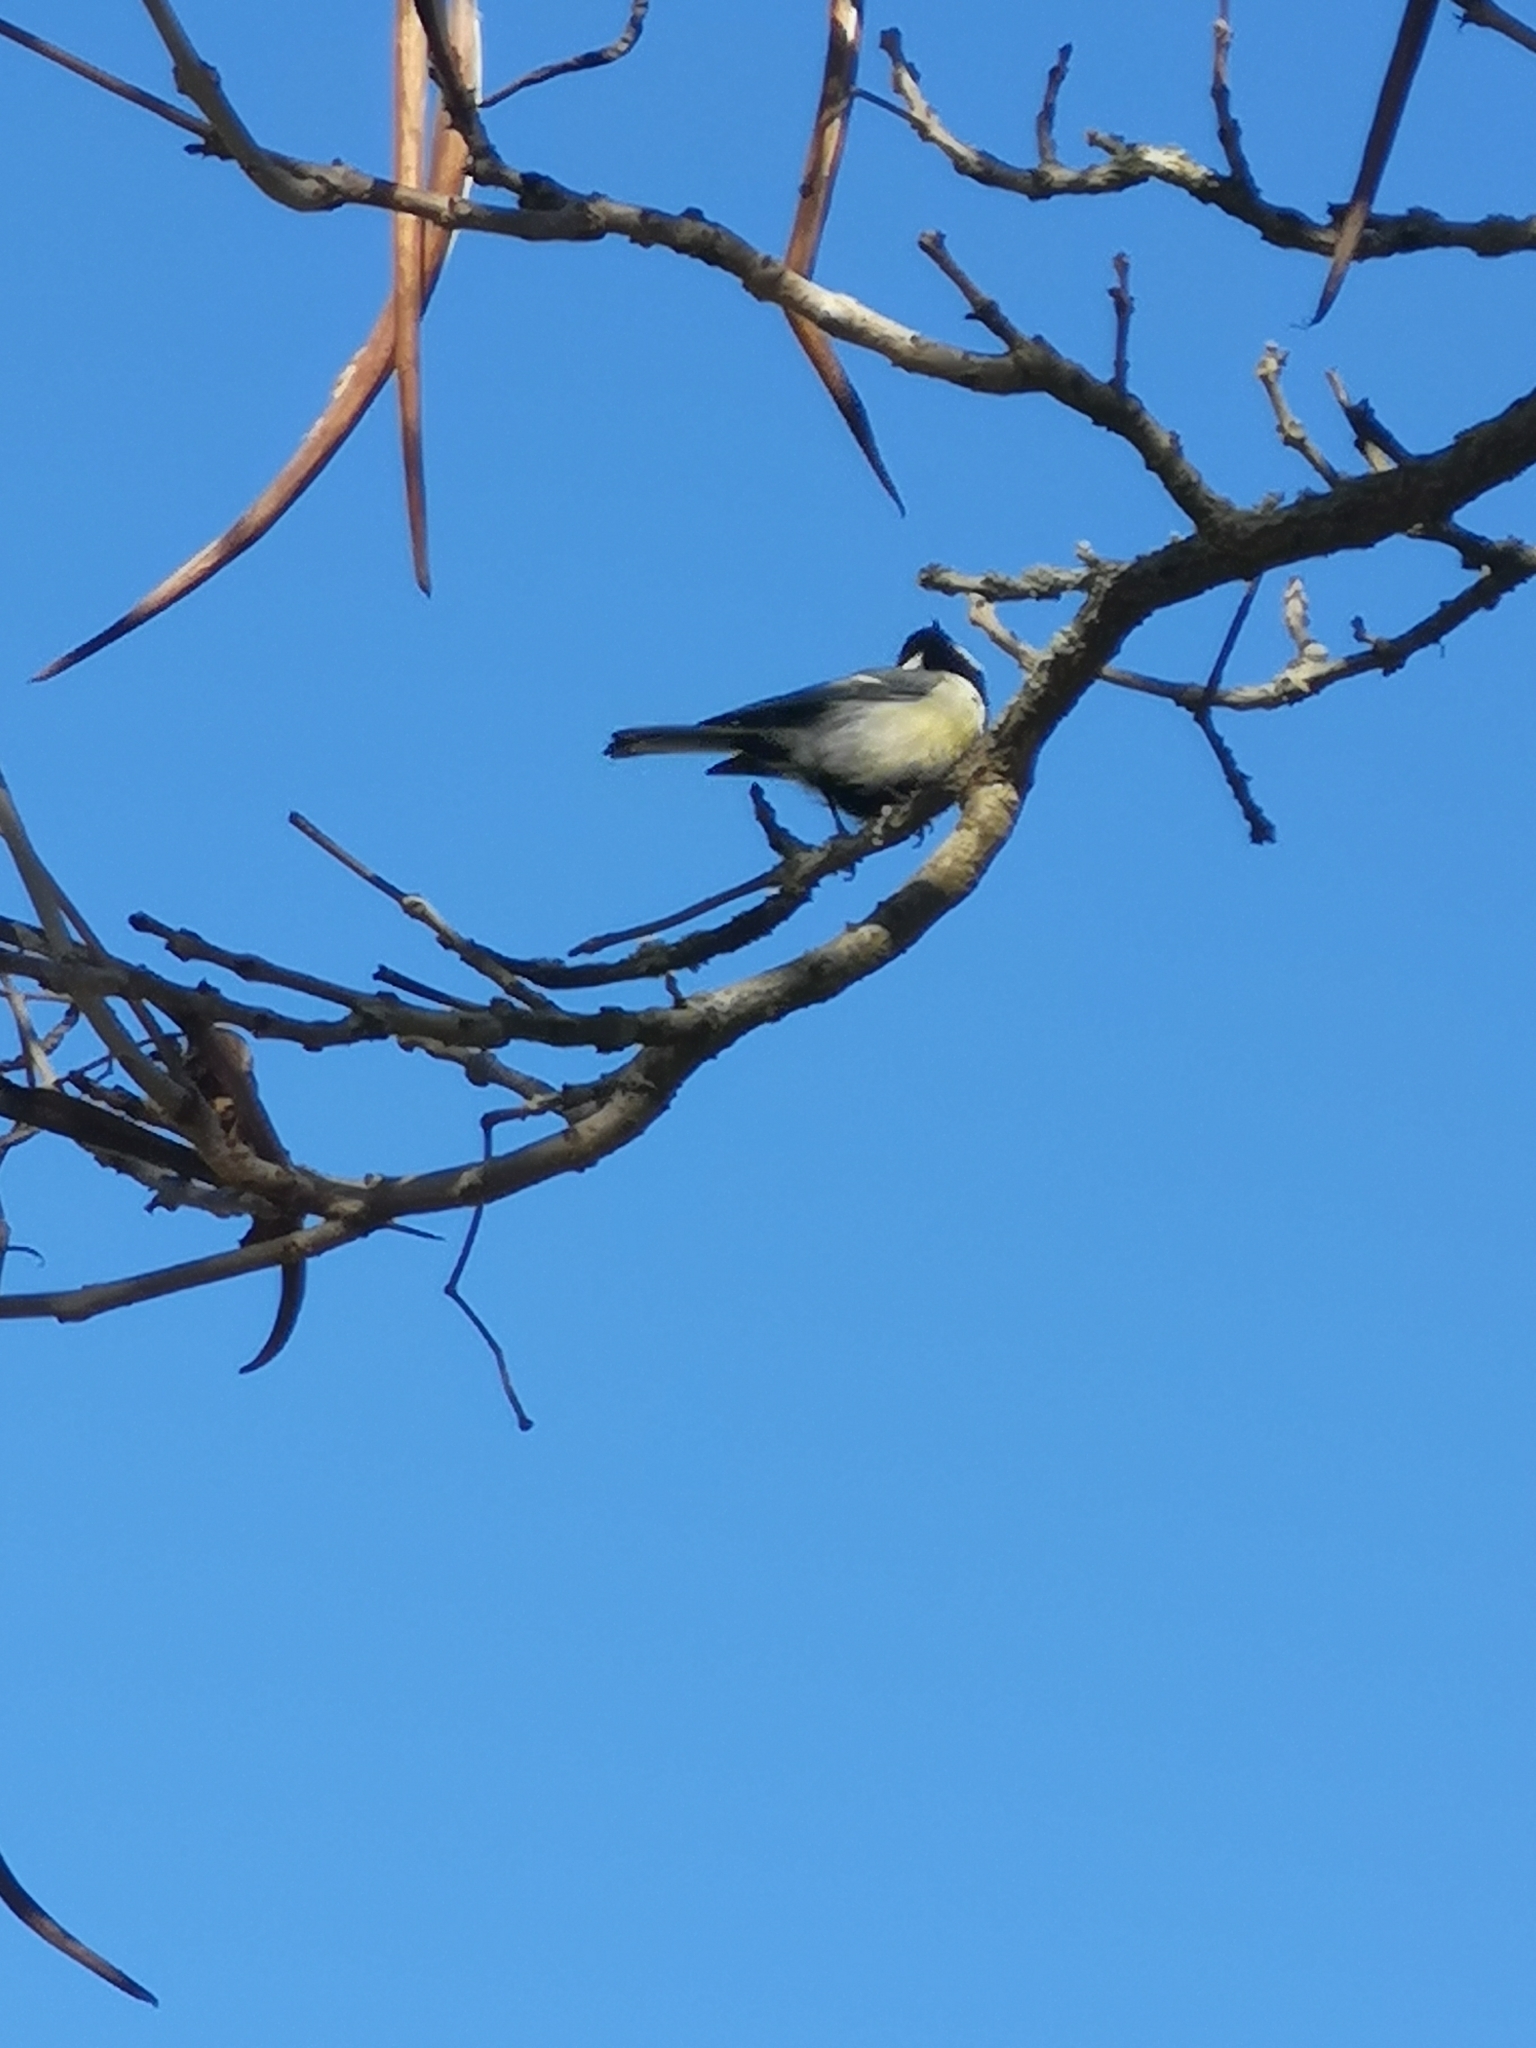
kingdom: Animalia
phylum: Chordata
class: Aves
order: Passeriformes
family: Paridae
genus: Parus
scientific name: Parus major
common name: Great tit
